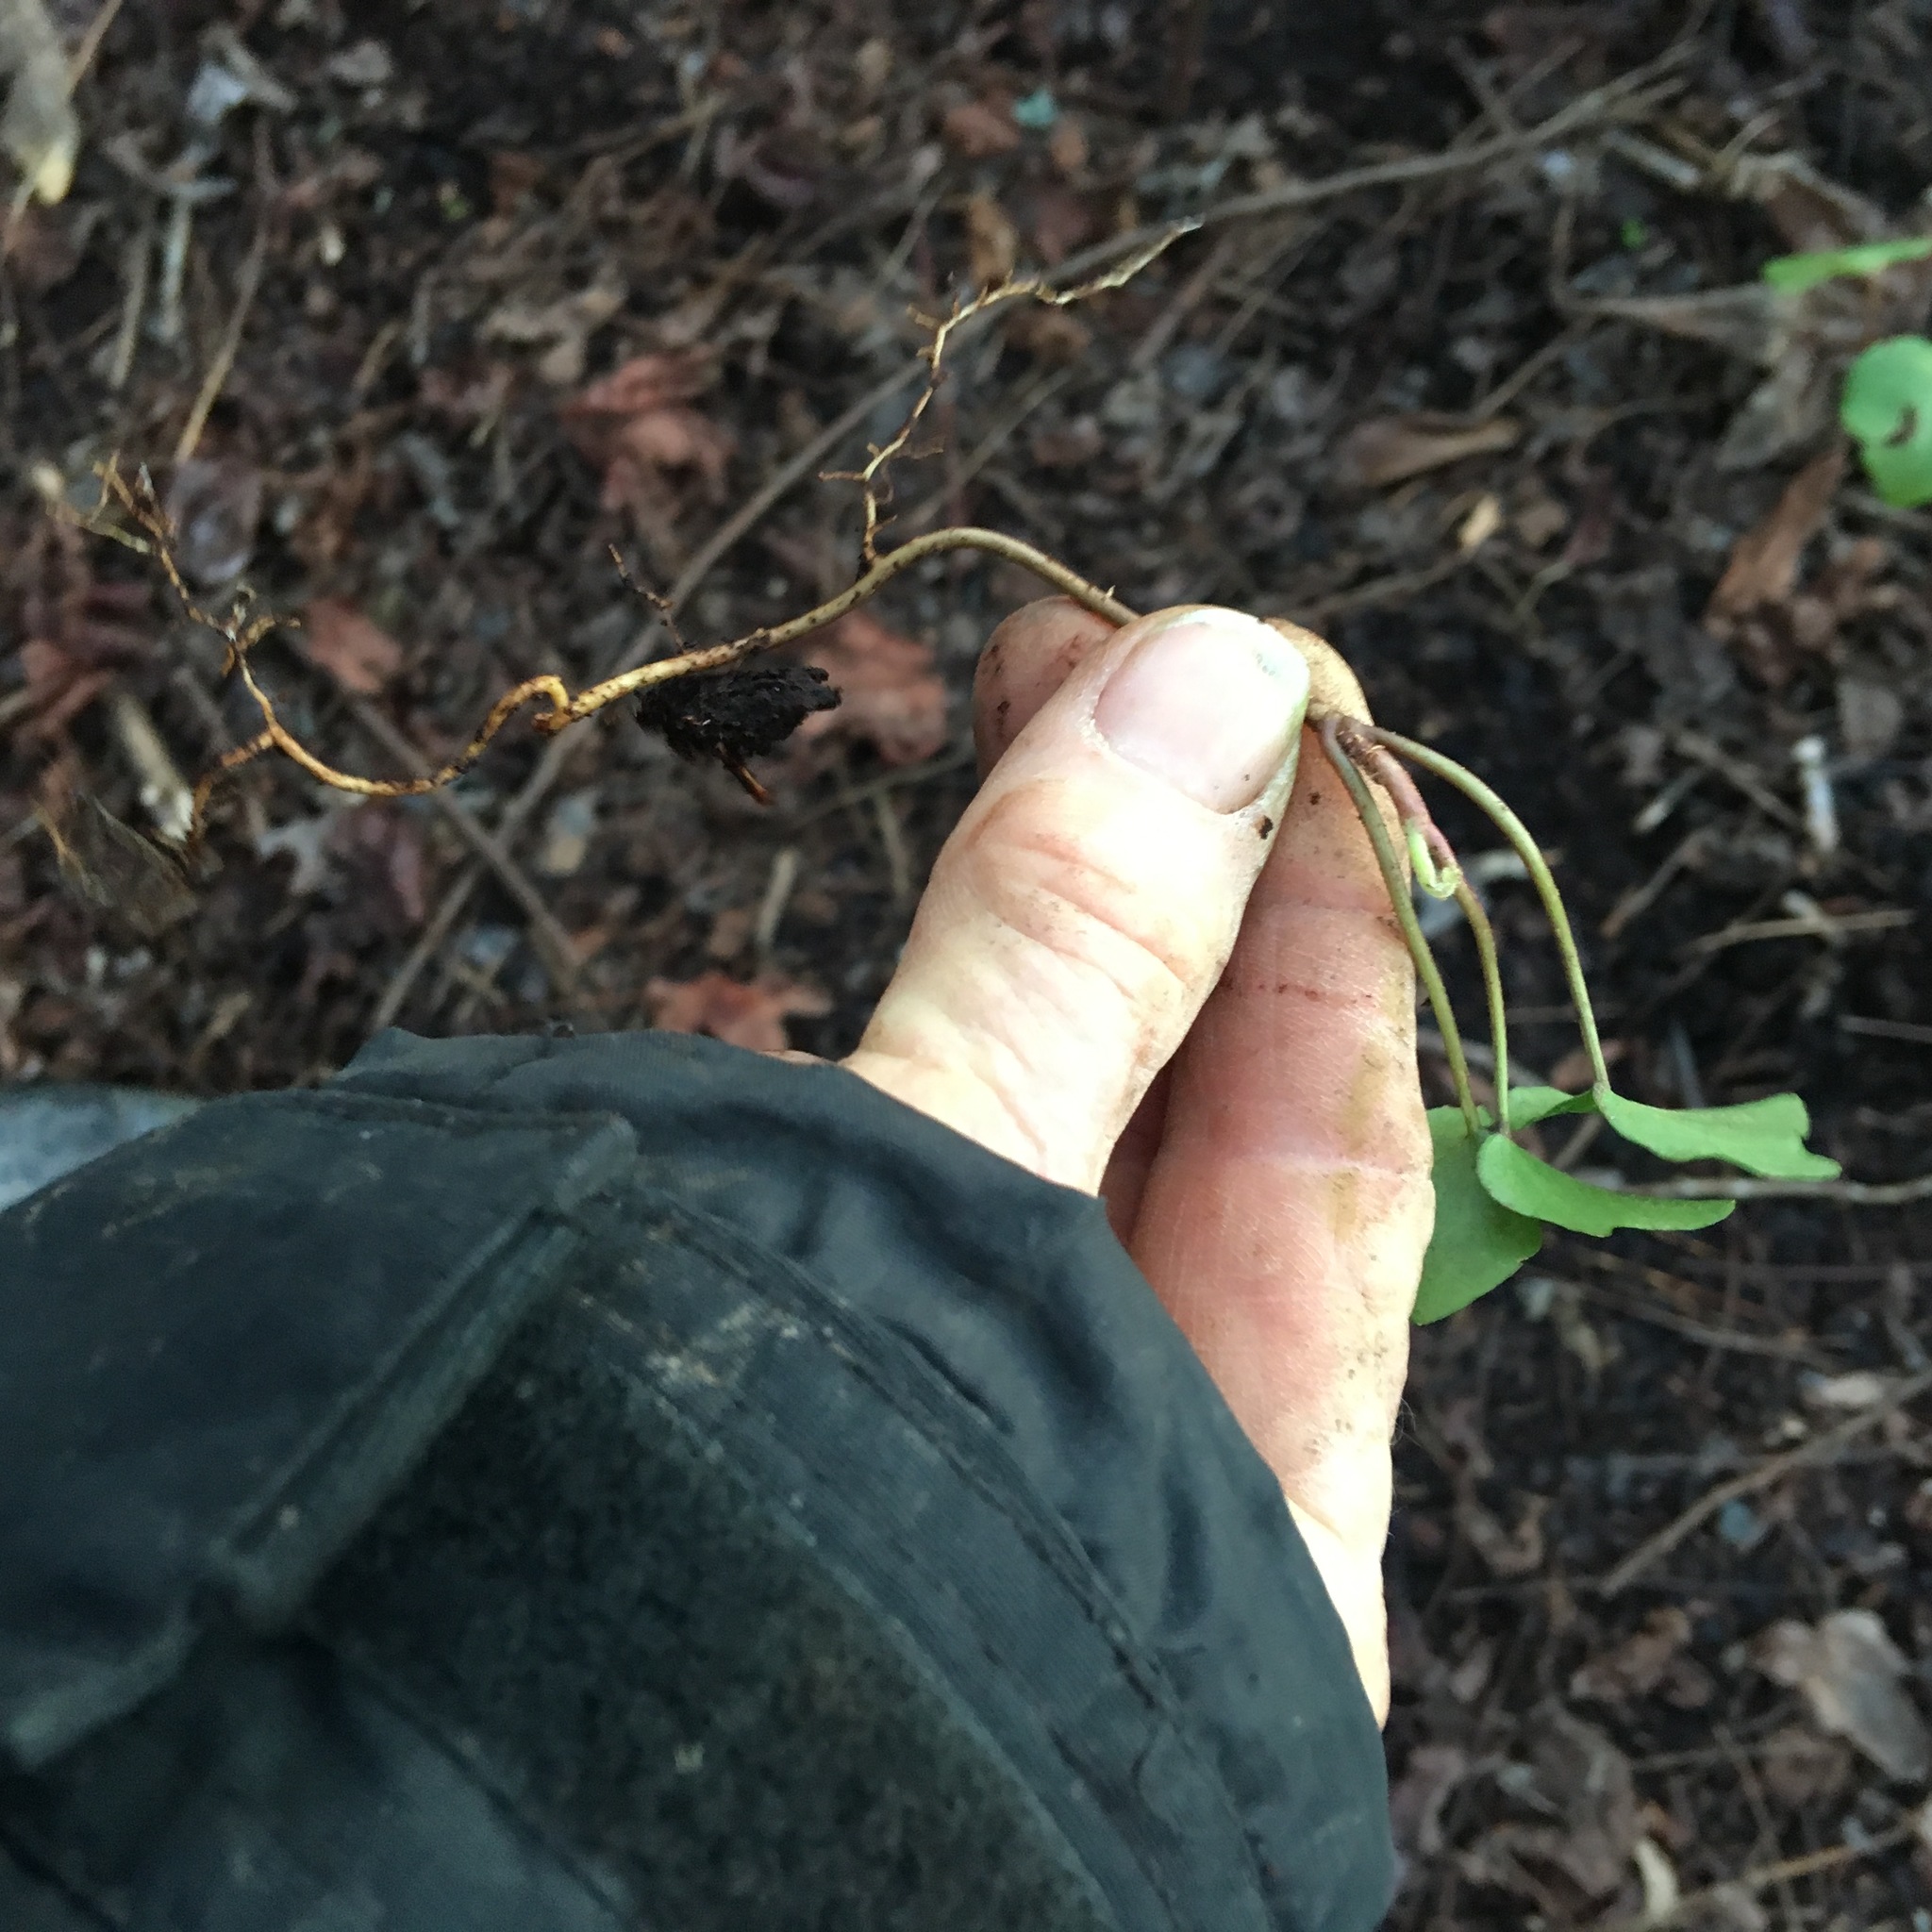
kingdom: Plantae
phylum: Tracheophyta
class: Magnoliopsida
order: Apiales
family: Araliaceae
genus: Hedera
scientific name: Hedera helix
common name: Ivy
